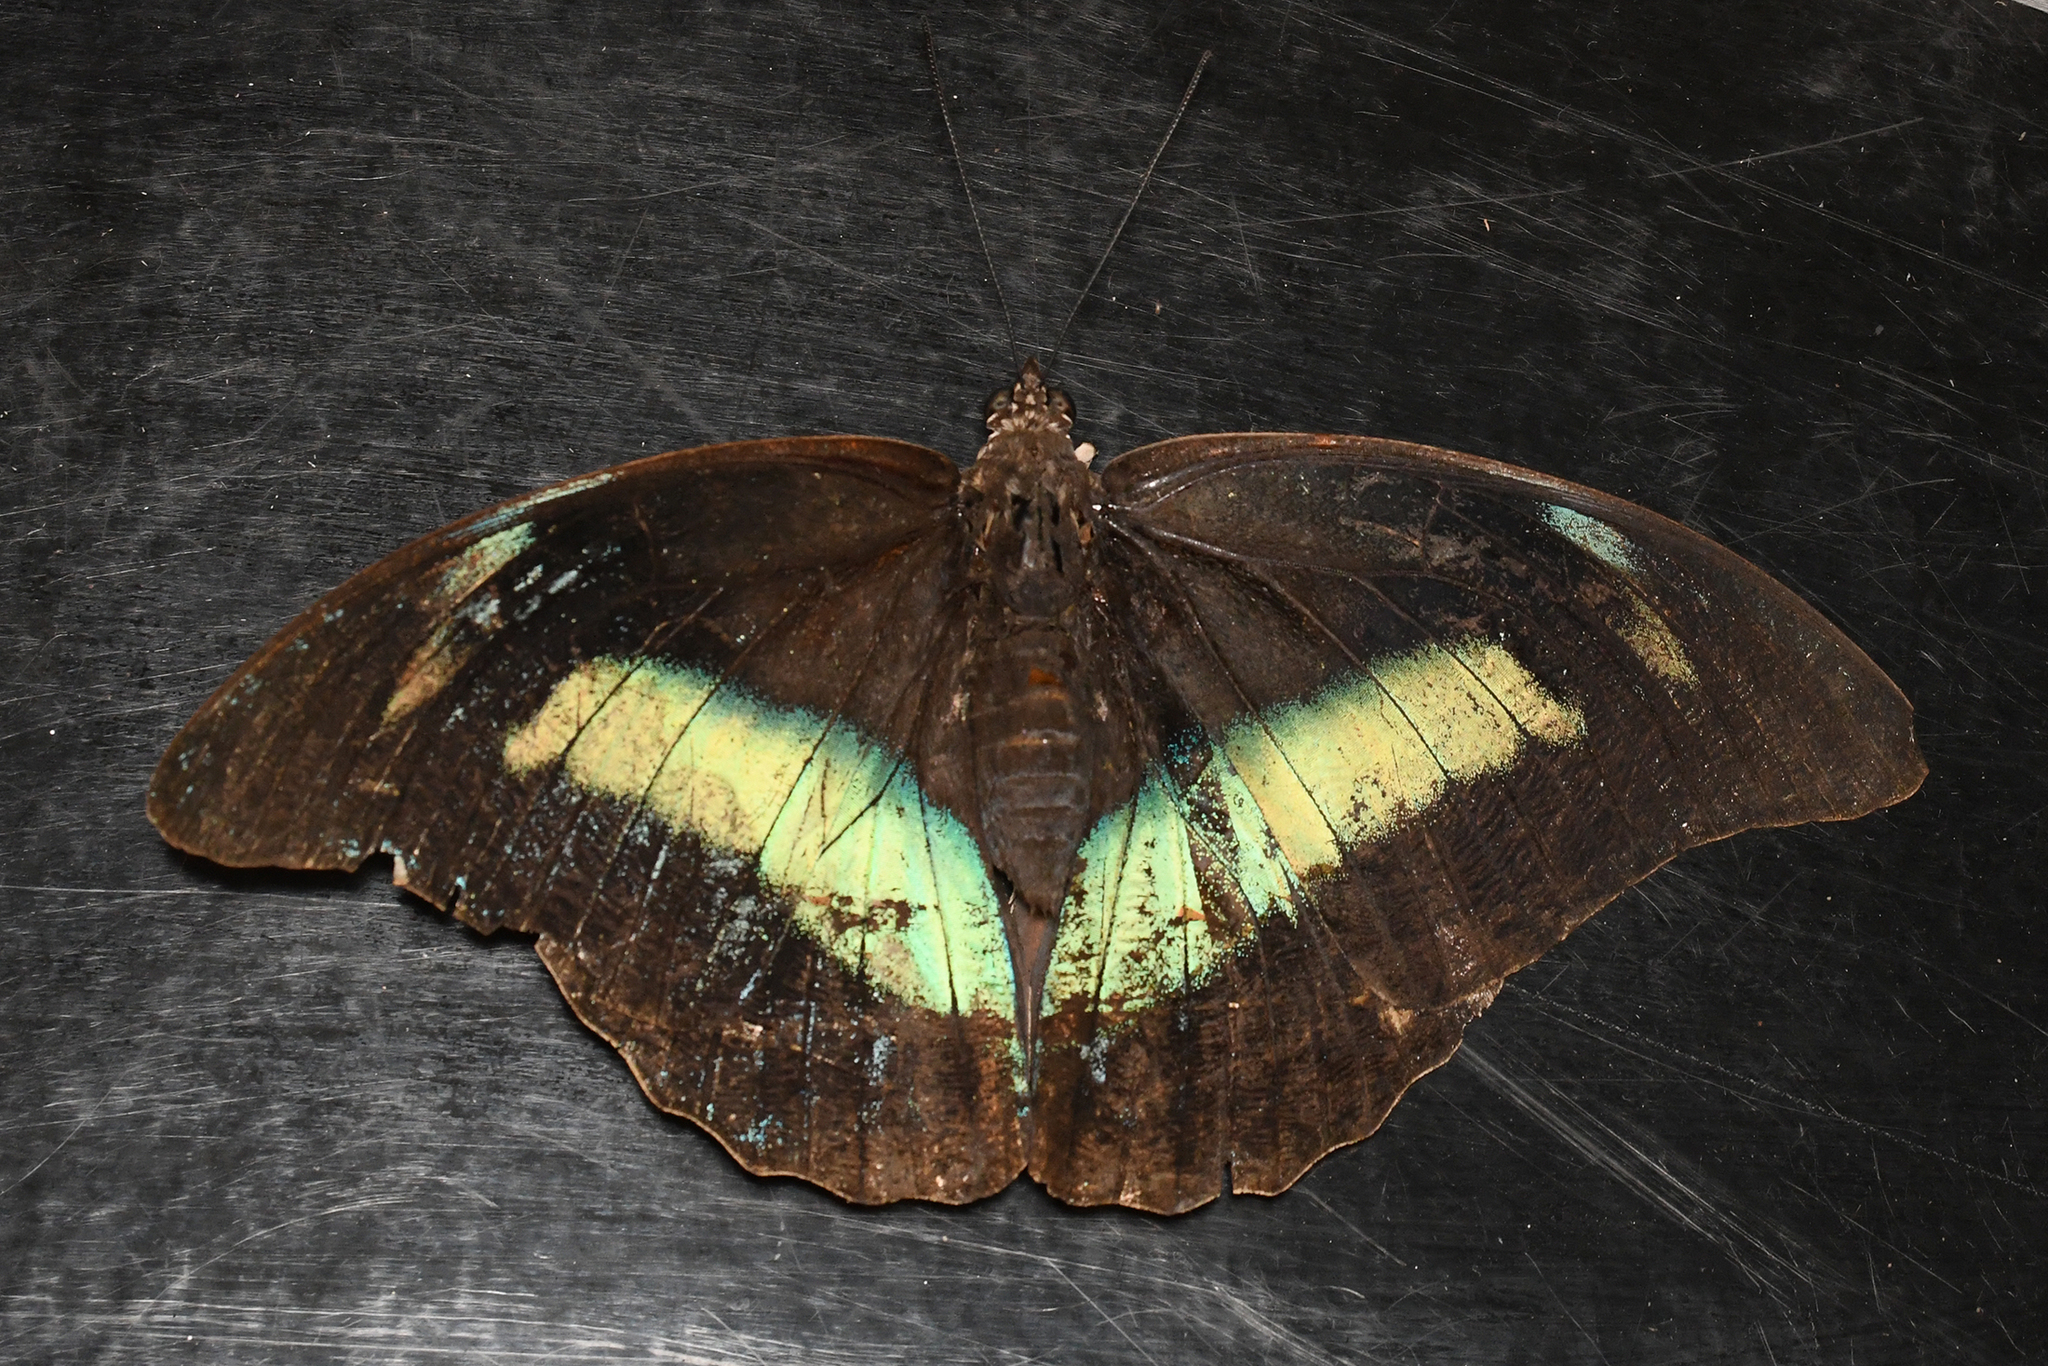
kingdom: Animalia
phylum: Arthropoda
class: Insecta
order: Lepidoptera
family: Nymphalidae
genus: Prepona
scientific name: Prepona demophon
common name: One-spotted prepona
